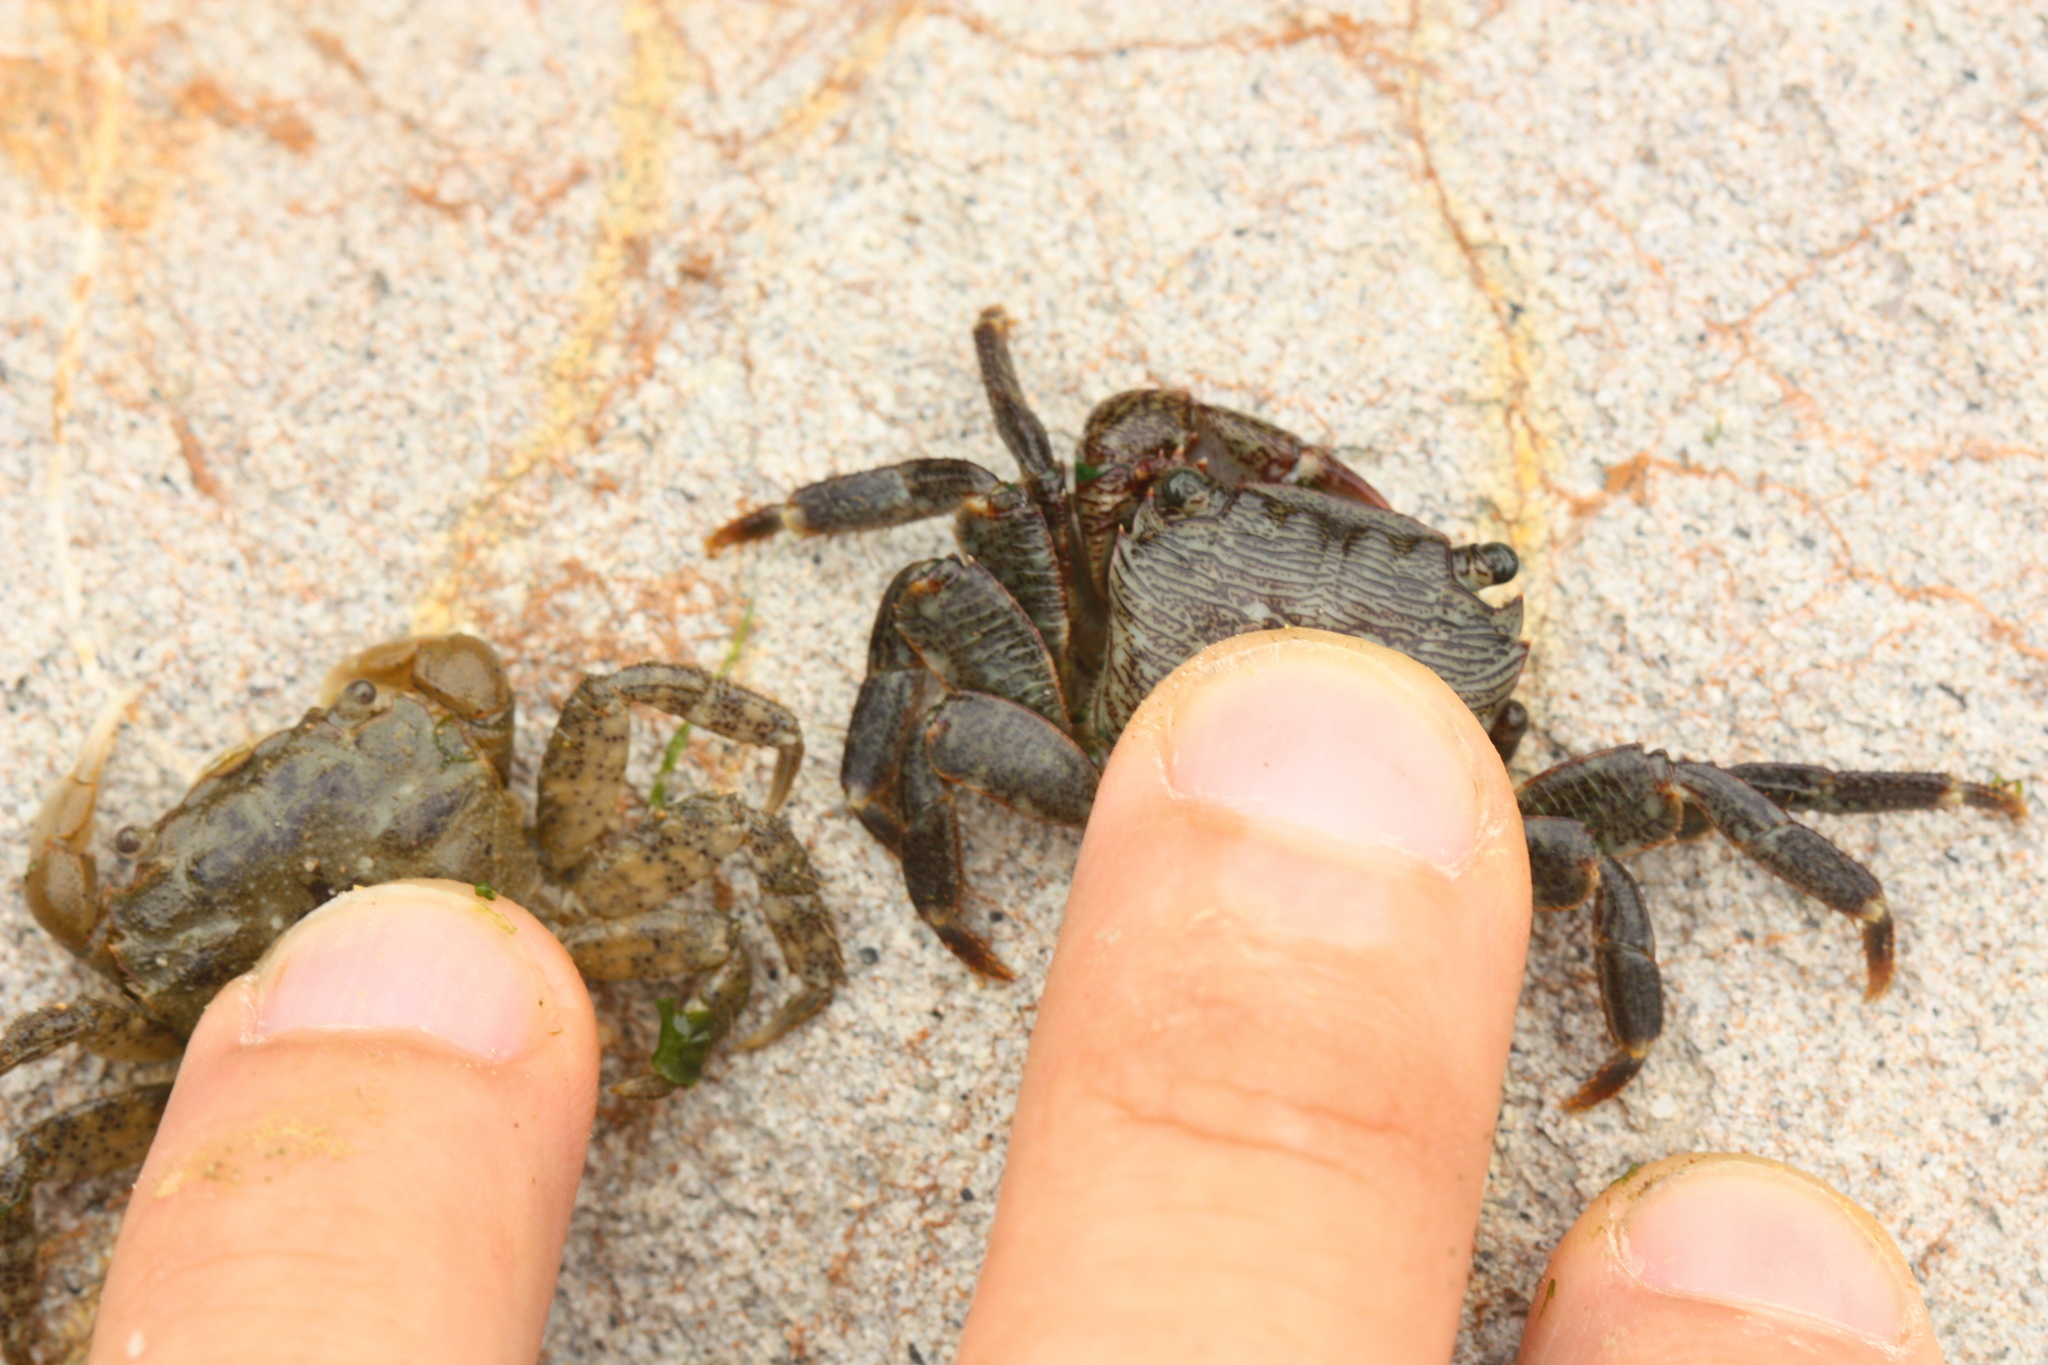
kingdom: Animalia
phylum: Arthropoda
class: Malacostraca
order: Decapoda
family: Varunidae
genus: Hemigrapsus
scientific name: Hemigrapsus oregonensis
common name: Yellow shore crab
